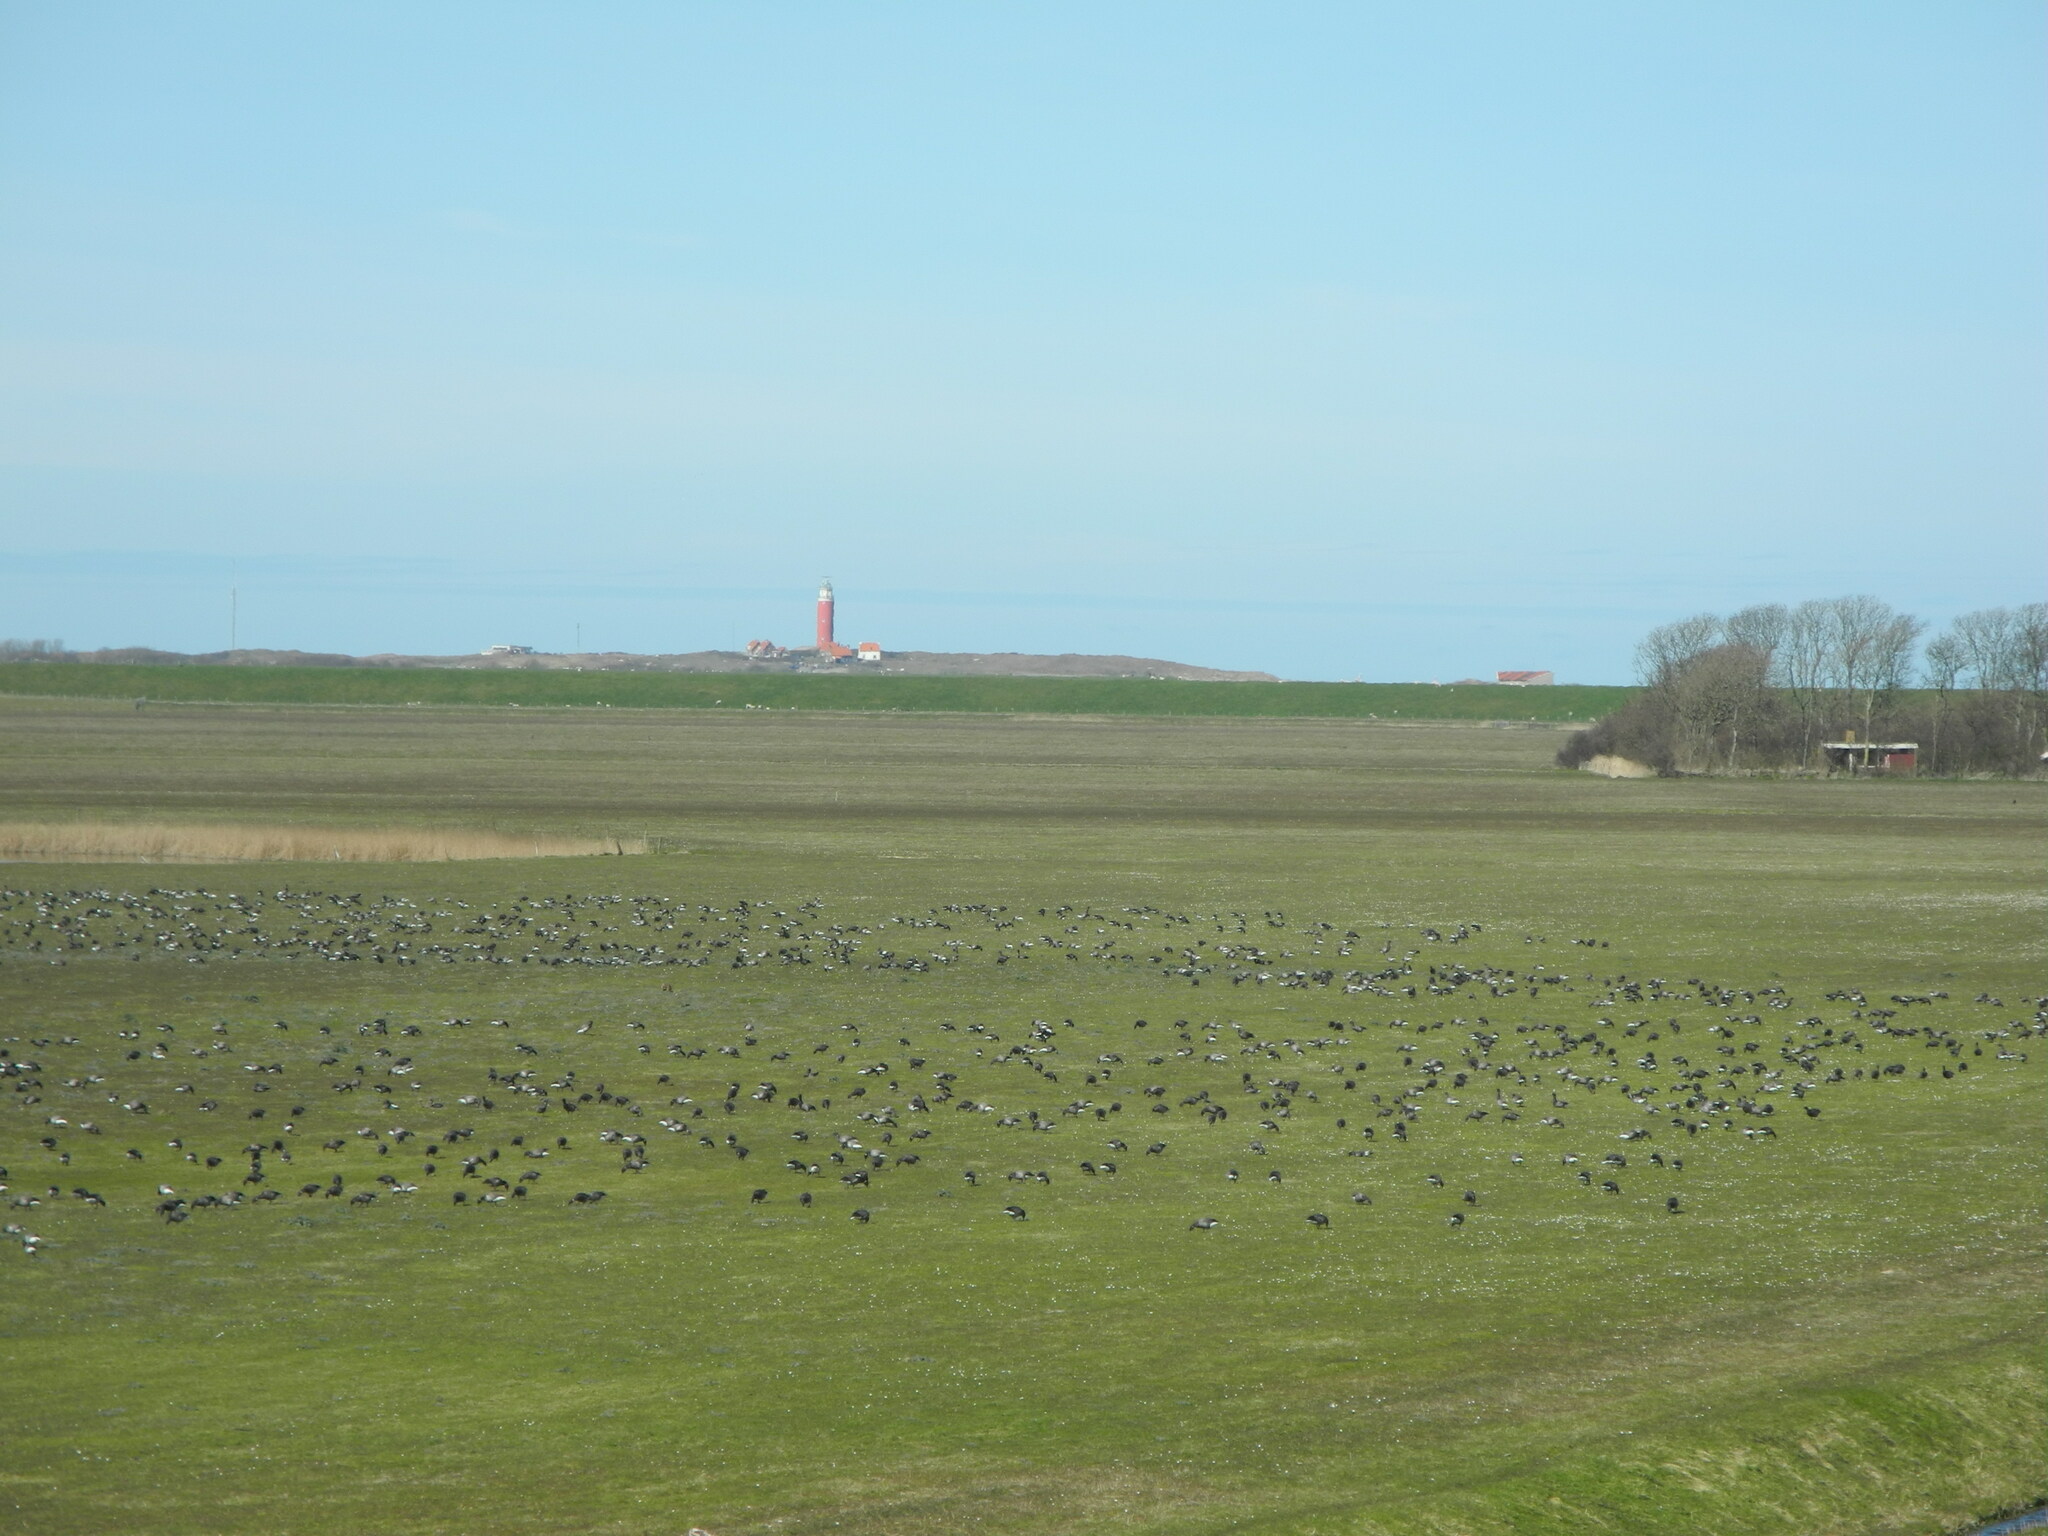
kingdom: Animalia
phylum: Chordata
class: Aves
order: Anseriformes
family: Anatidae
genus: Branta
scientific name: Branta bernicla
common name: Brant goose
